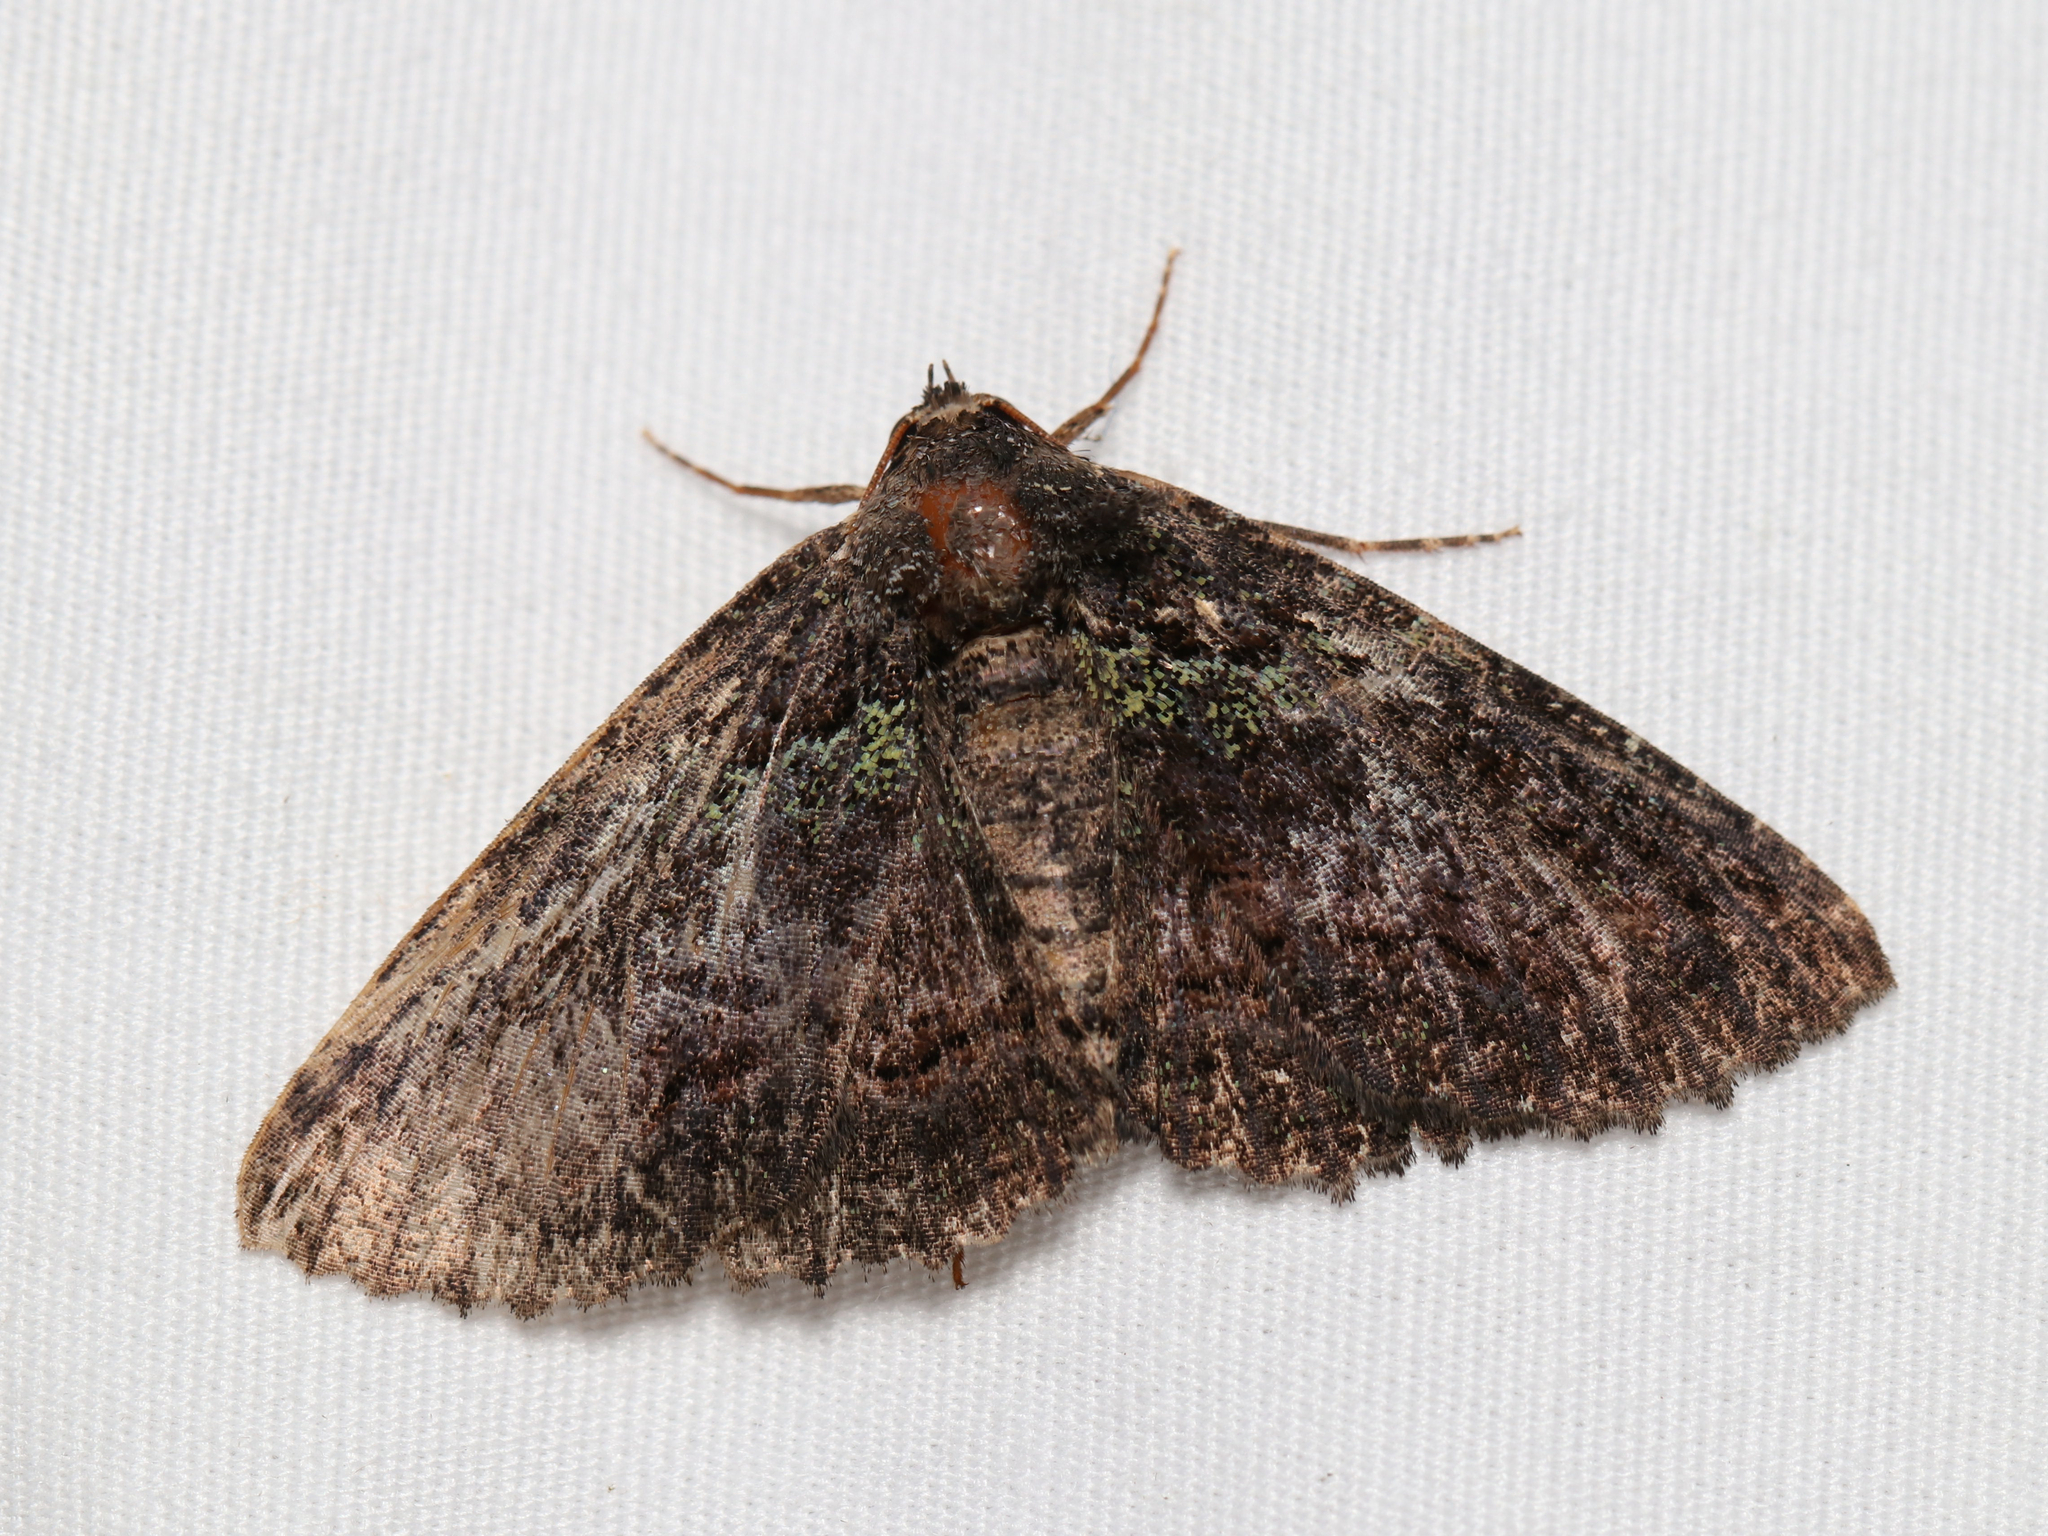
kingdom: Animalia
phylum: Arthropoda
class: Insecta
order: Lepidoptera
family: Erebidae
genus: Zale
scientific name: Zale aeruginosa
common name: Green-dusted zale moth
